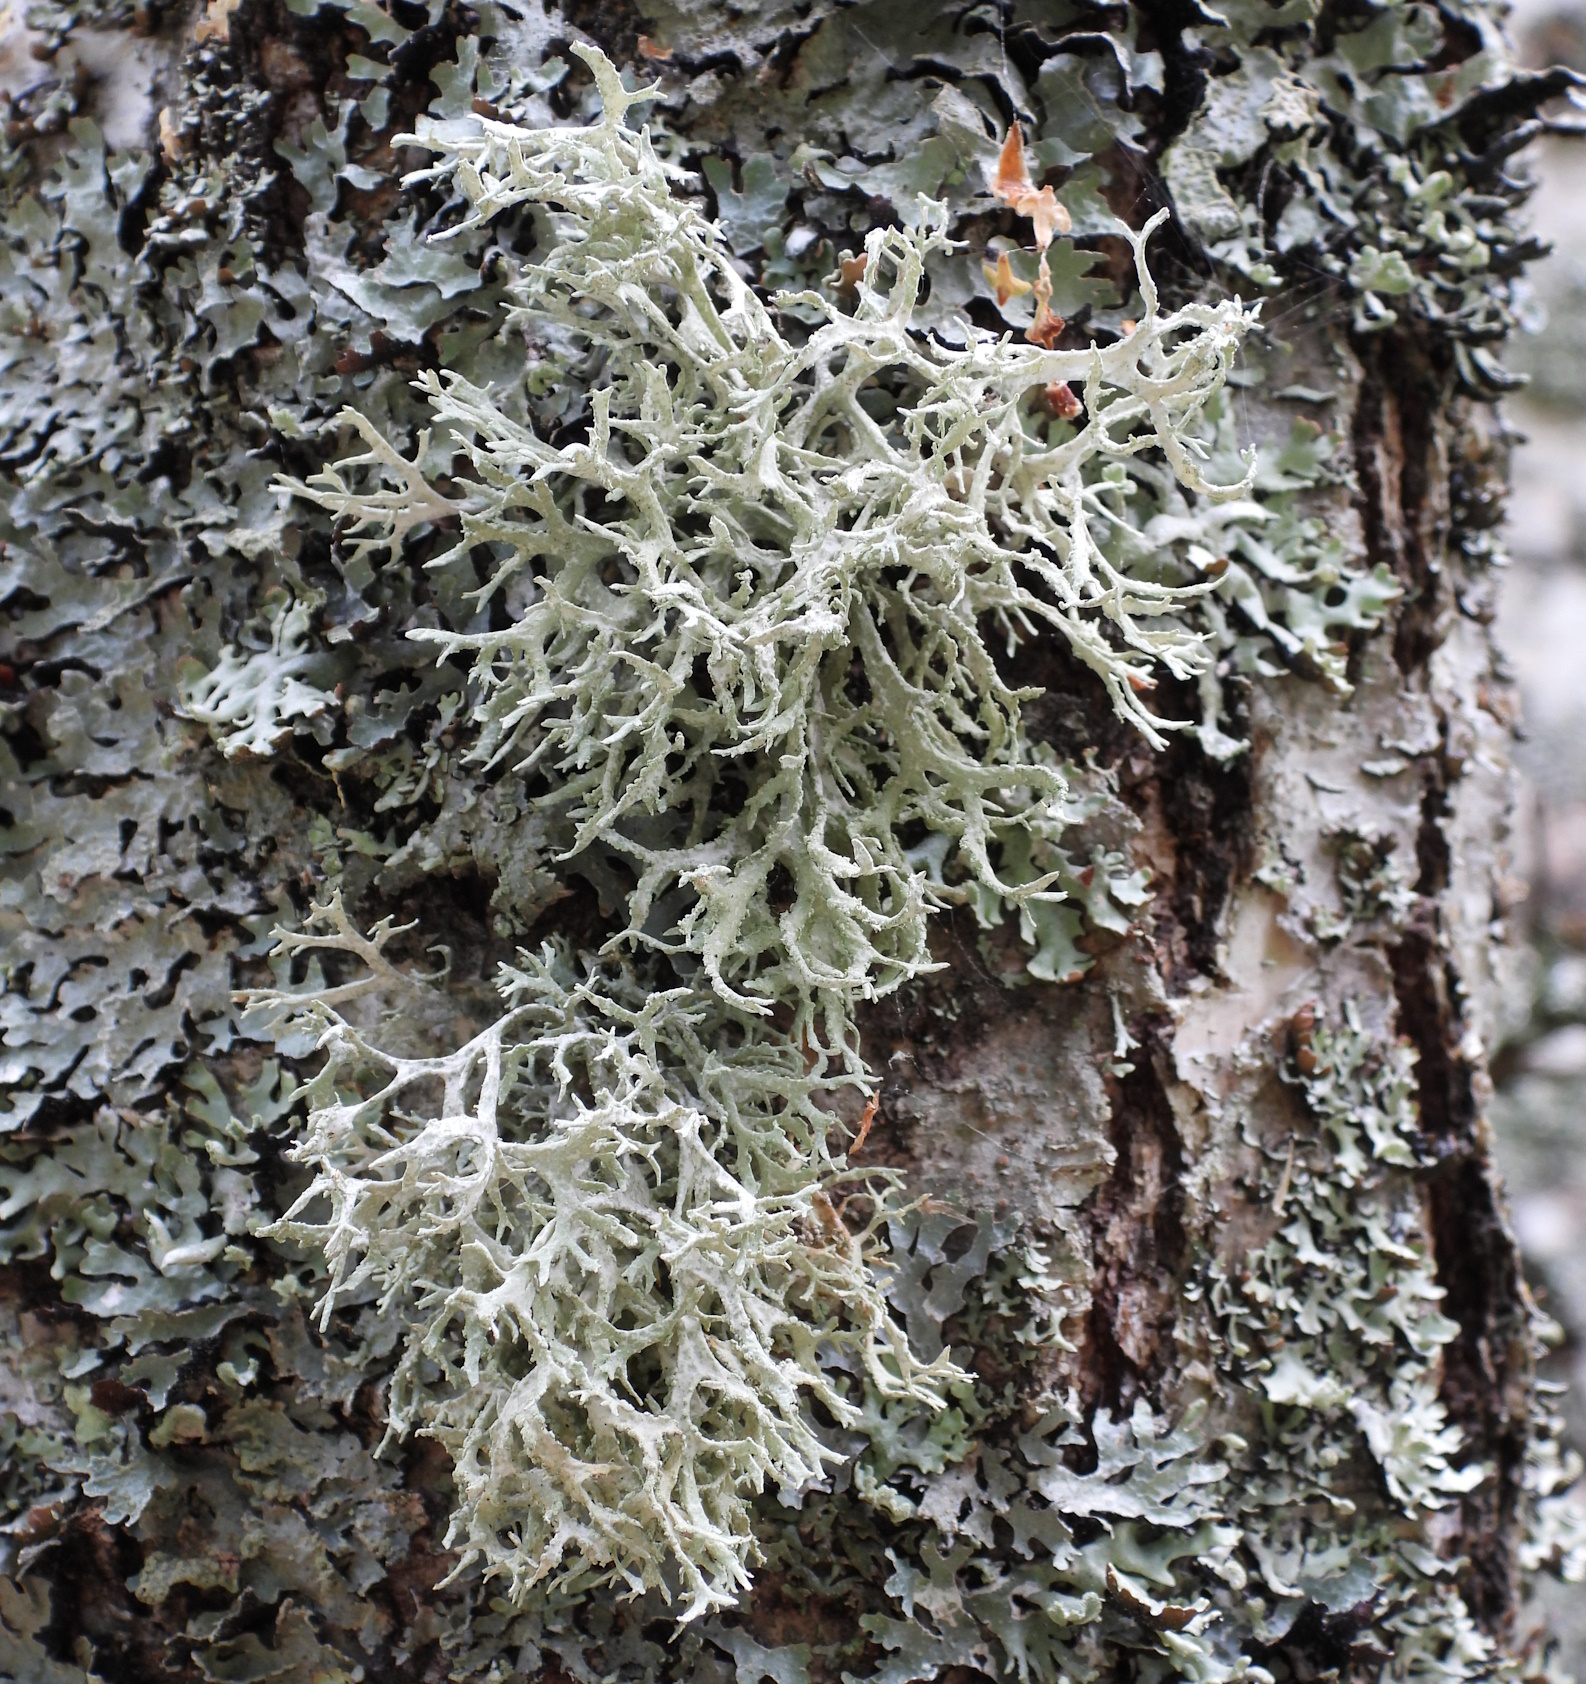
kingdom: Fungi
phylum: Ascomycota
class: Lecanoromycetes
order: Lecanorales
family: Parmeliaceae
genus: Evernia
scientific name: Evernia prunastri
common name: Oak moss
